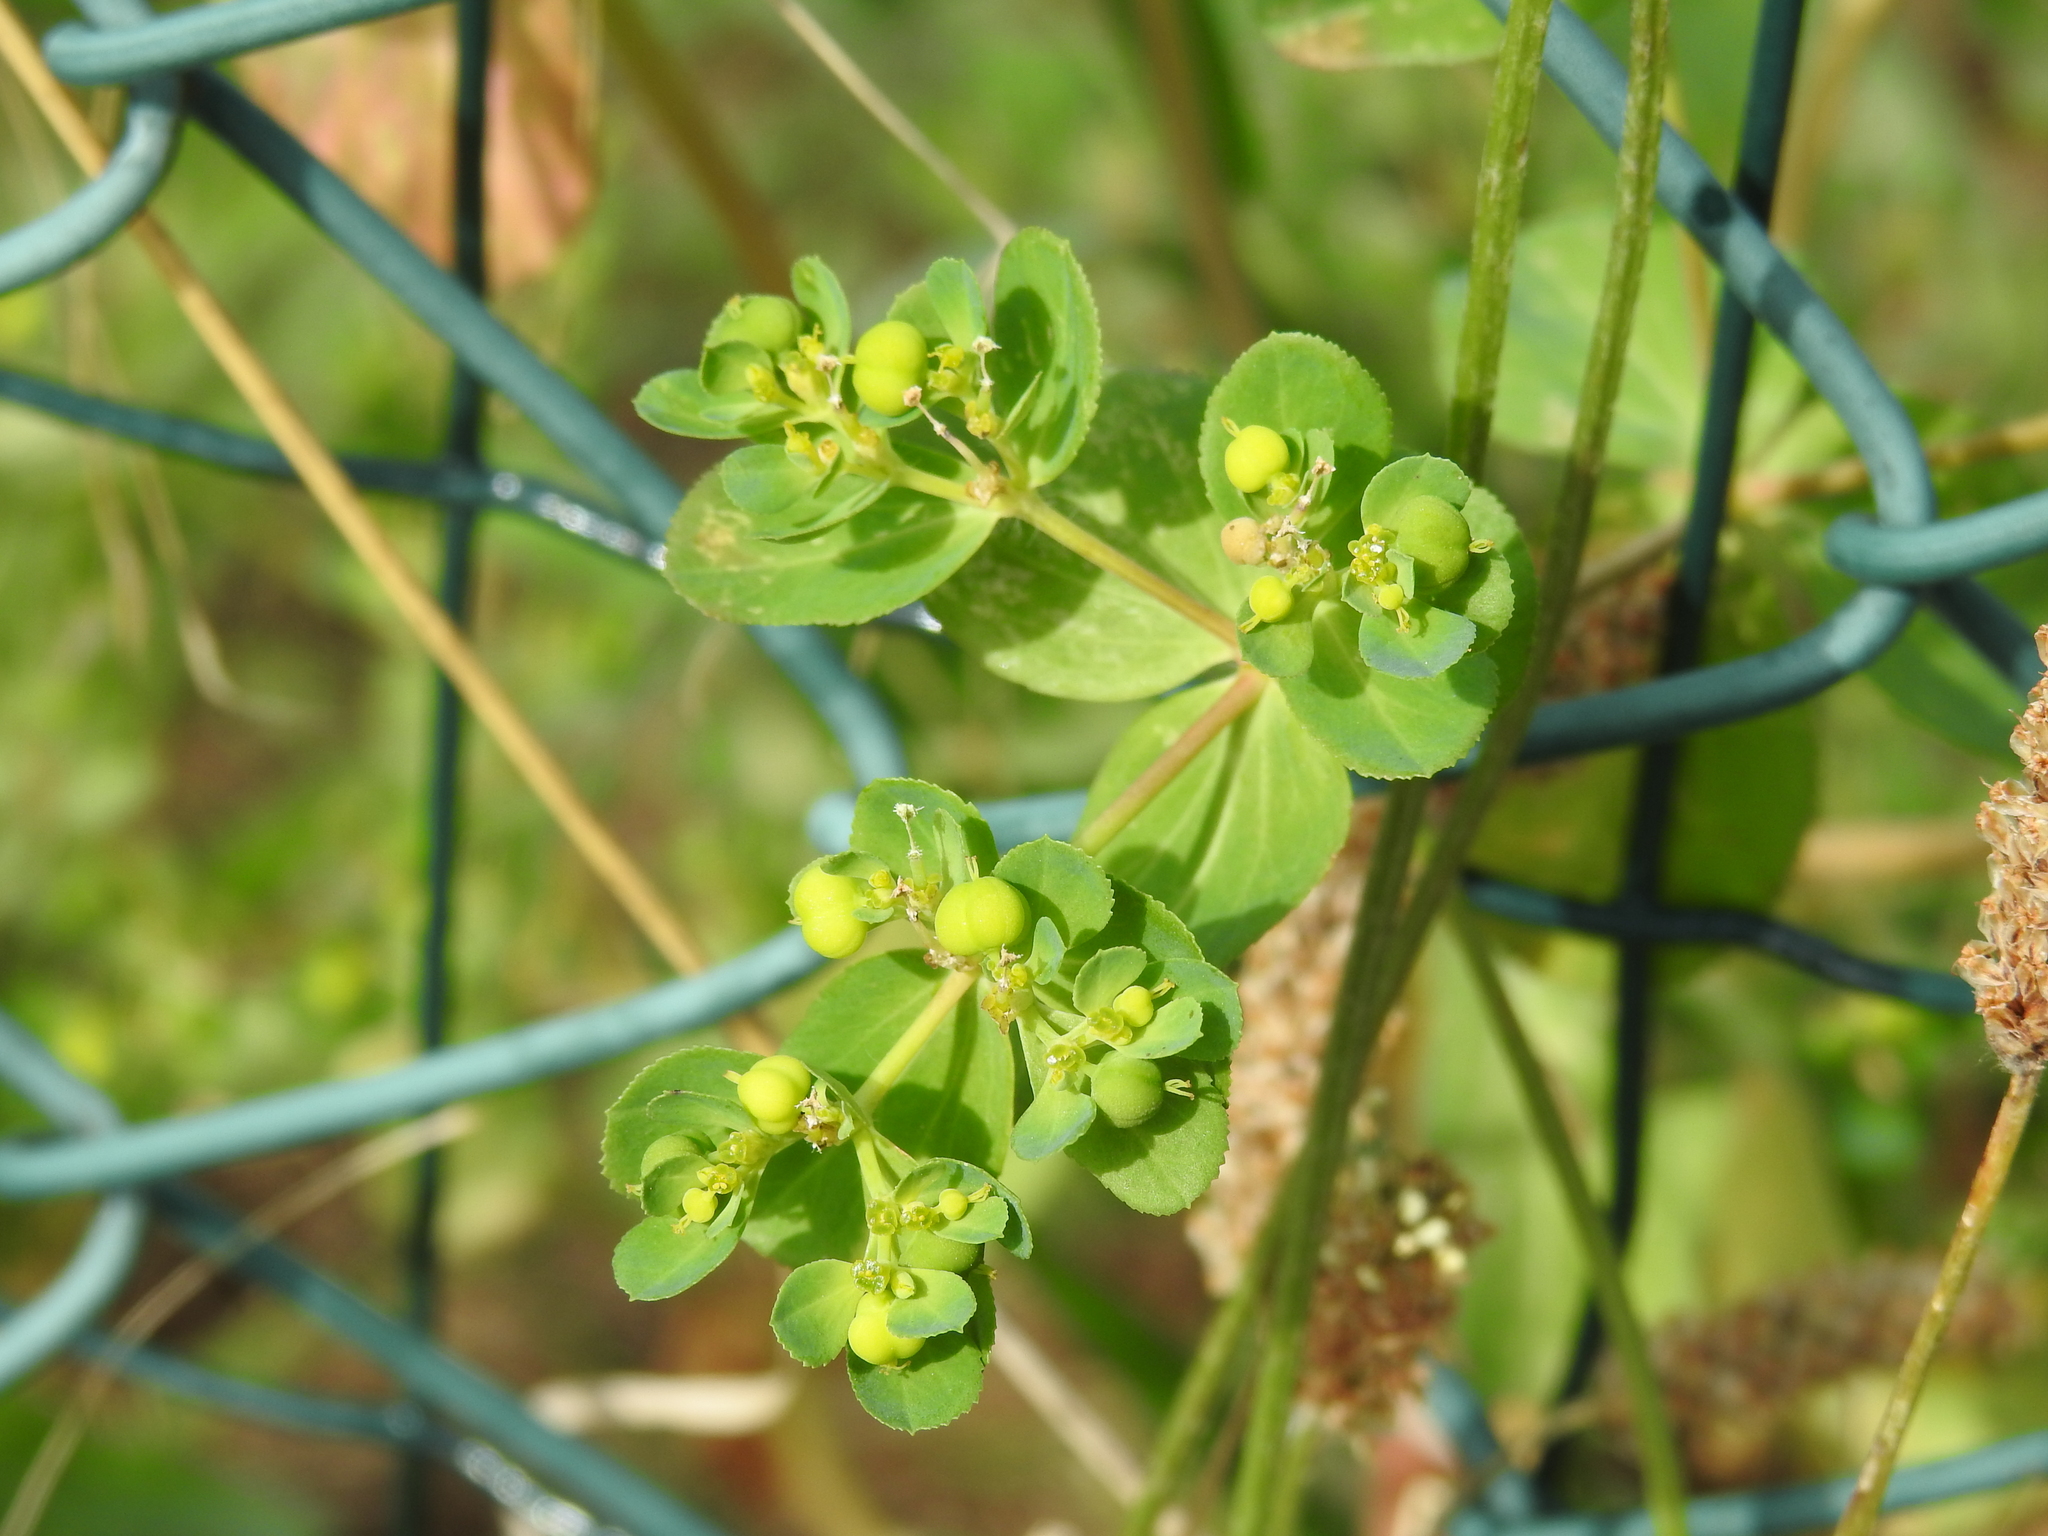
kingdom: Plantae
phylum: Tracheophyta
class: Magnoliopsida
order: Malpighiales
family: Euphorbiaceae
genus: Euphorbia
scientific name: Euphorbia helioscopia
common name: Sun spurge
